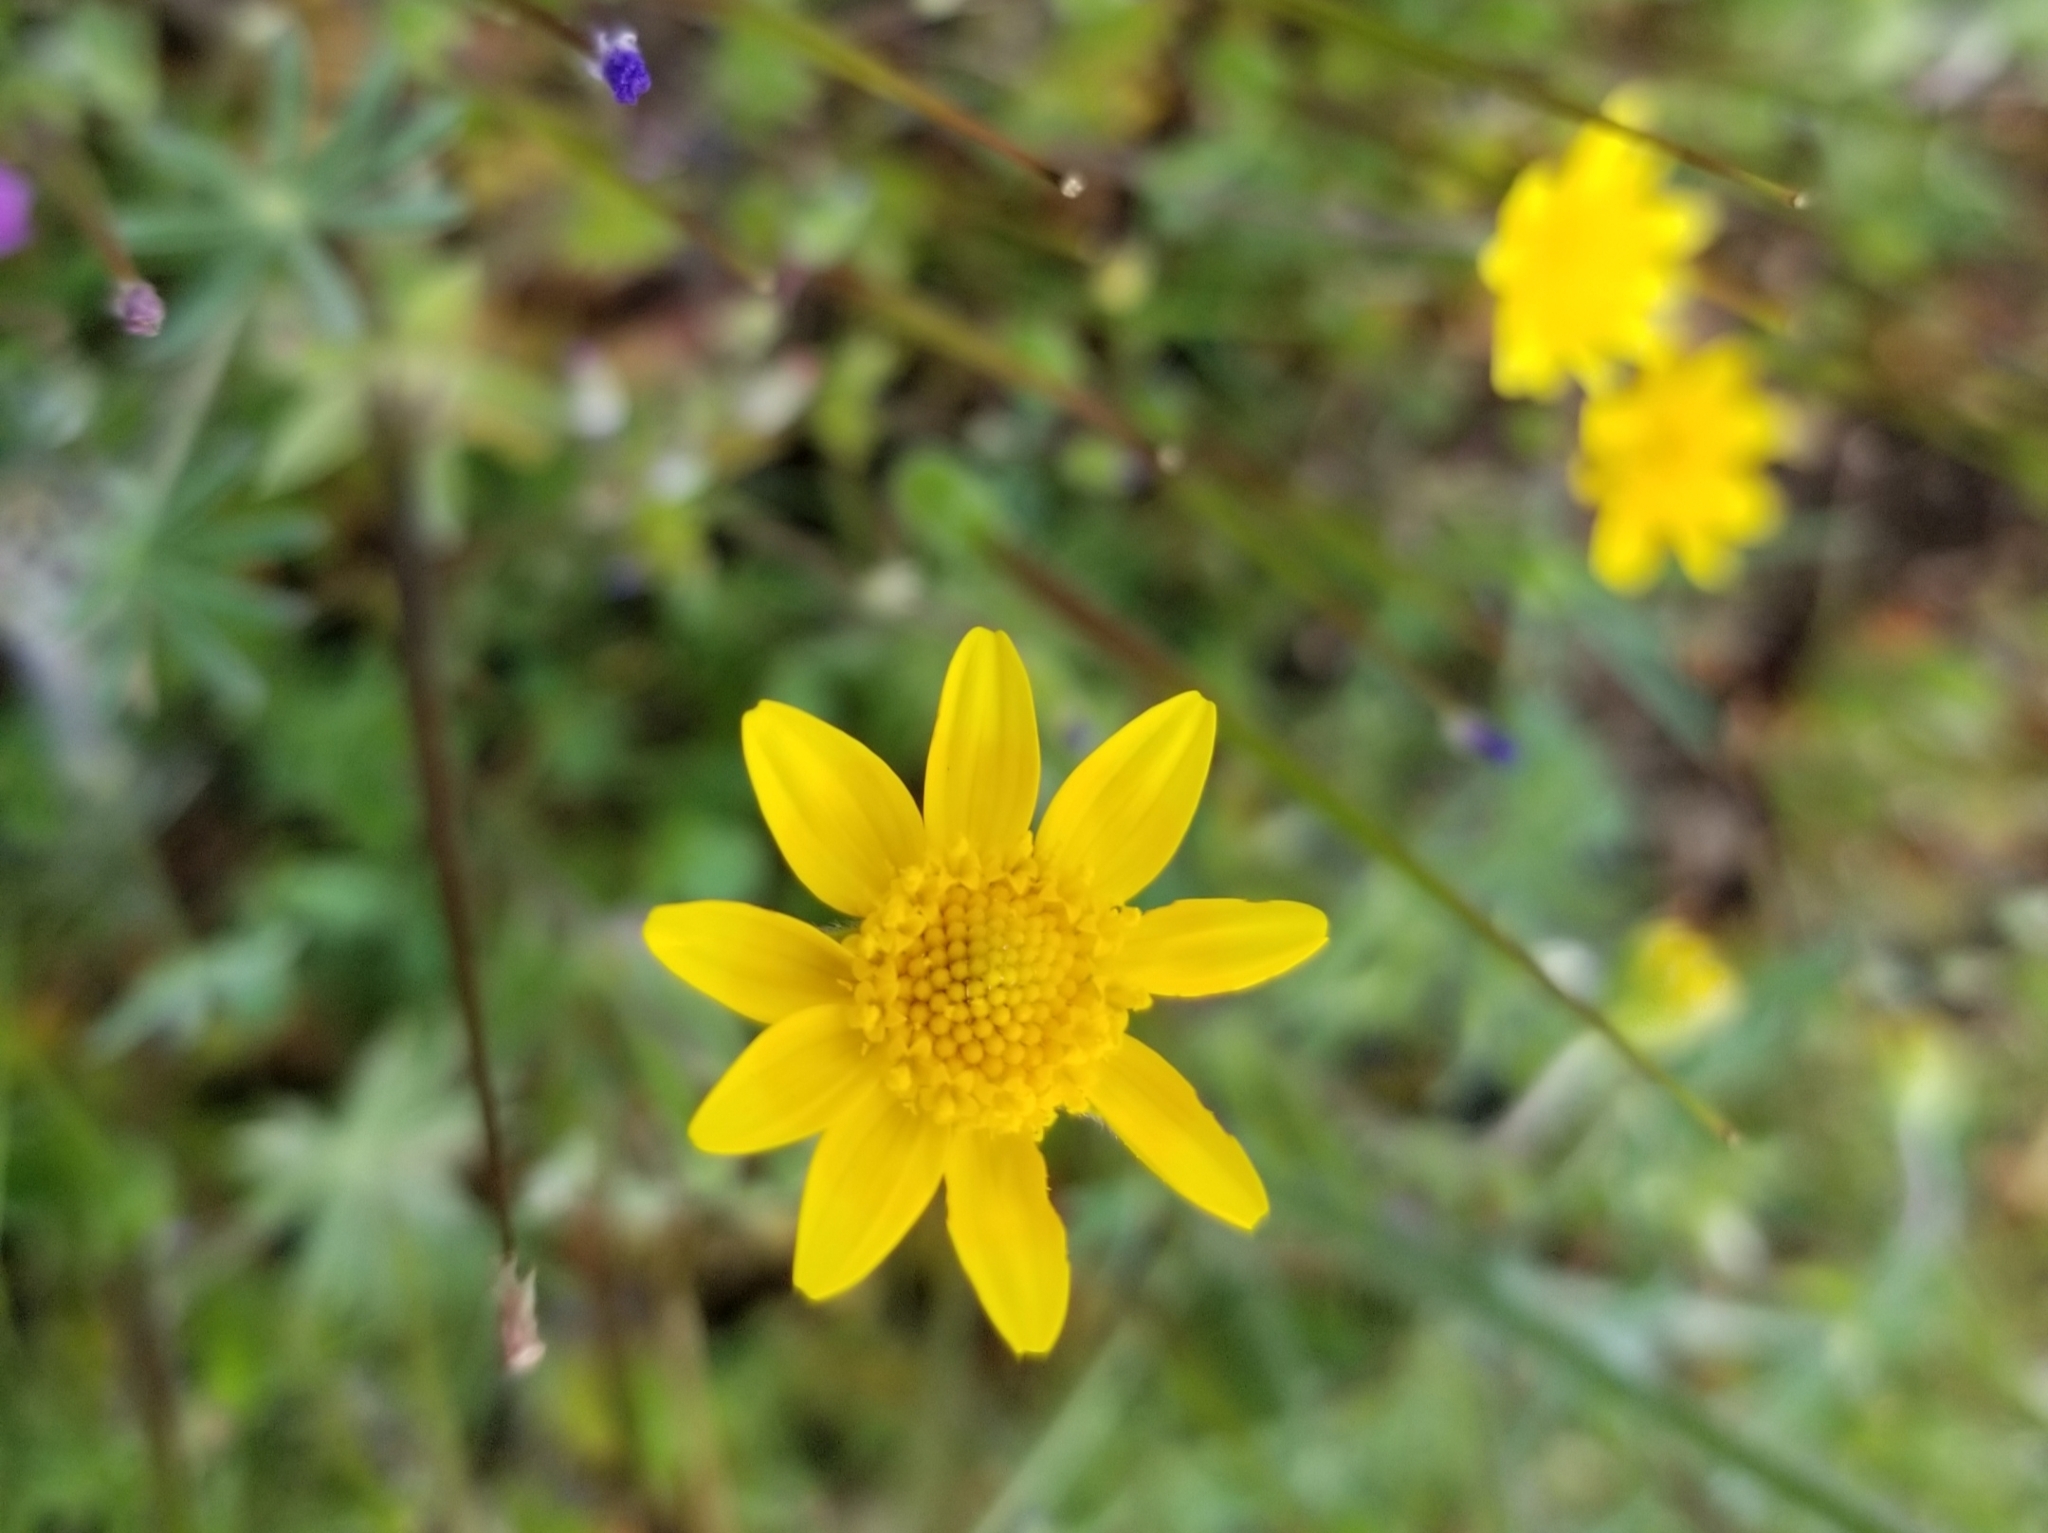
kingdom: Plantae
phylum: Tracheophyta
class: Magnoliopsida
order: Asterales
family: Asteraceae
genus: Lasthenia
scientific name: Lasthenia californica
